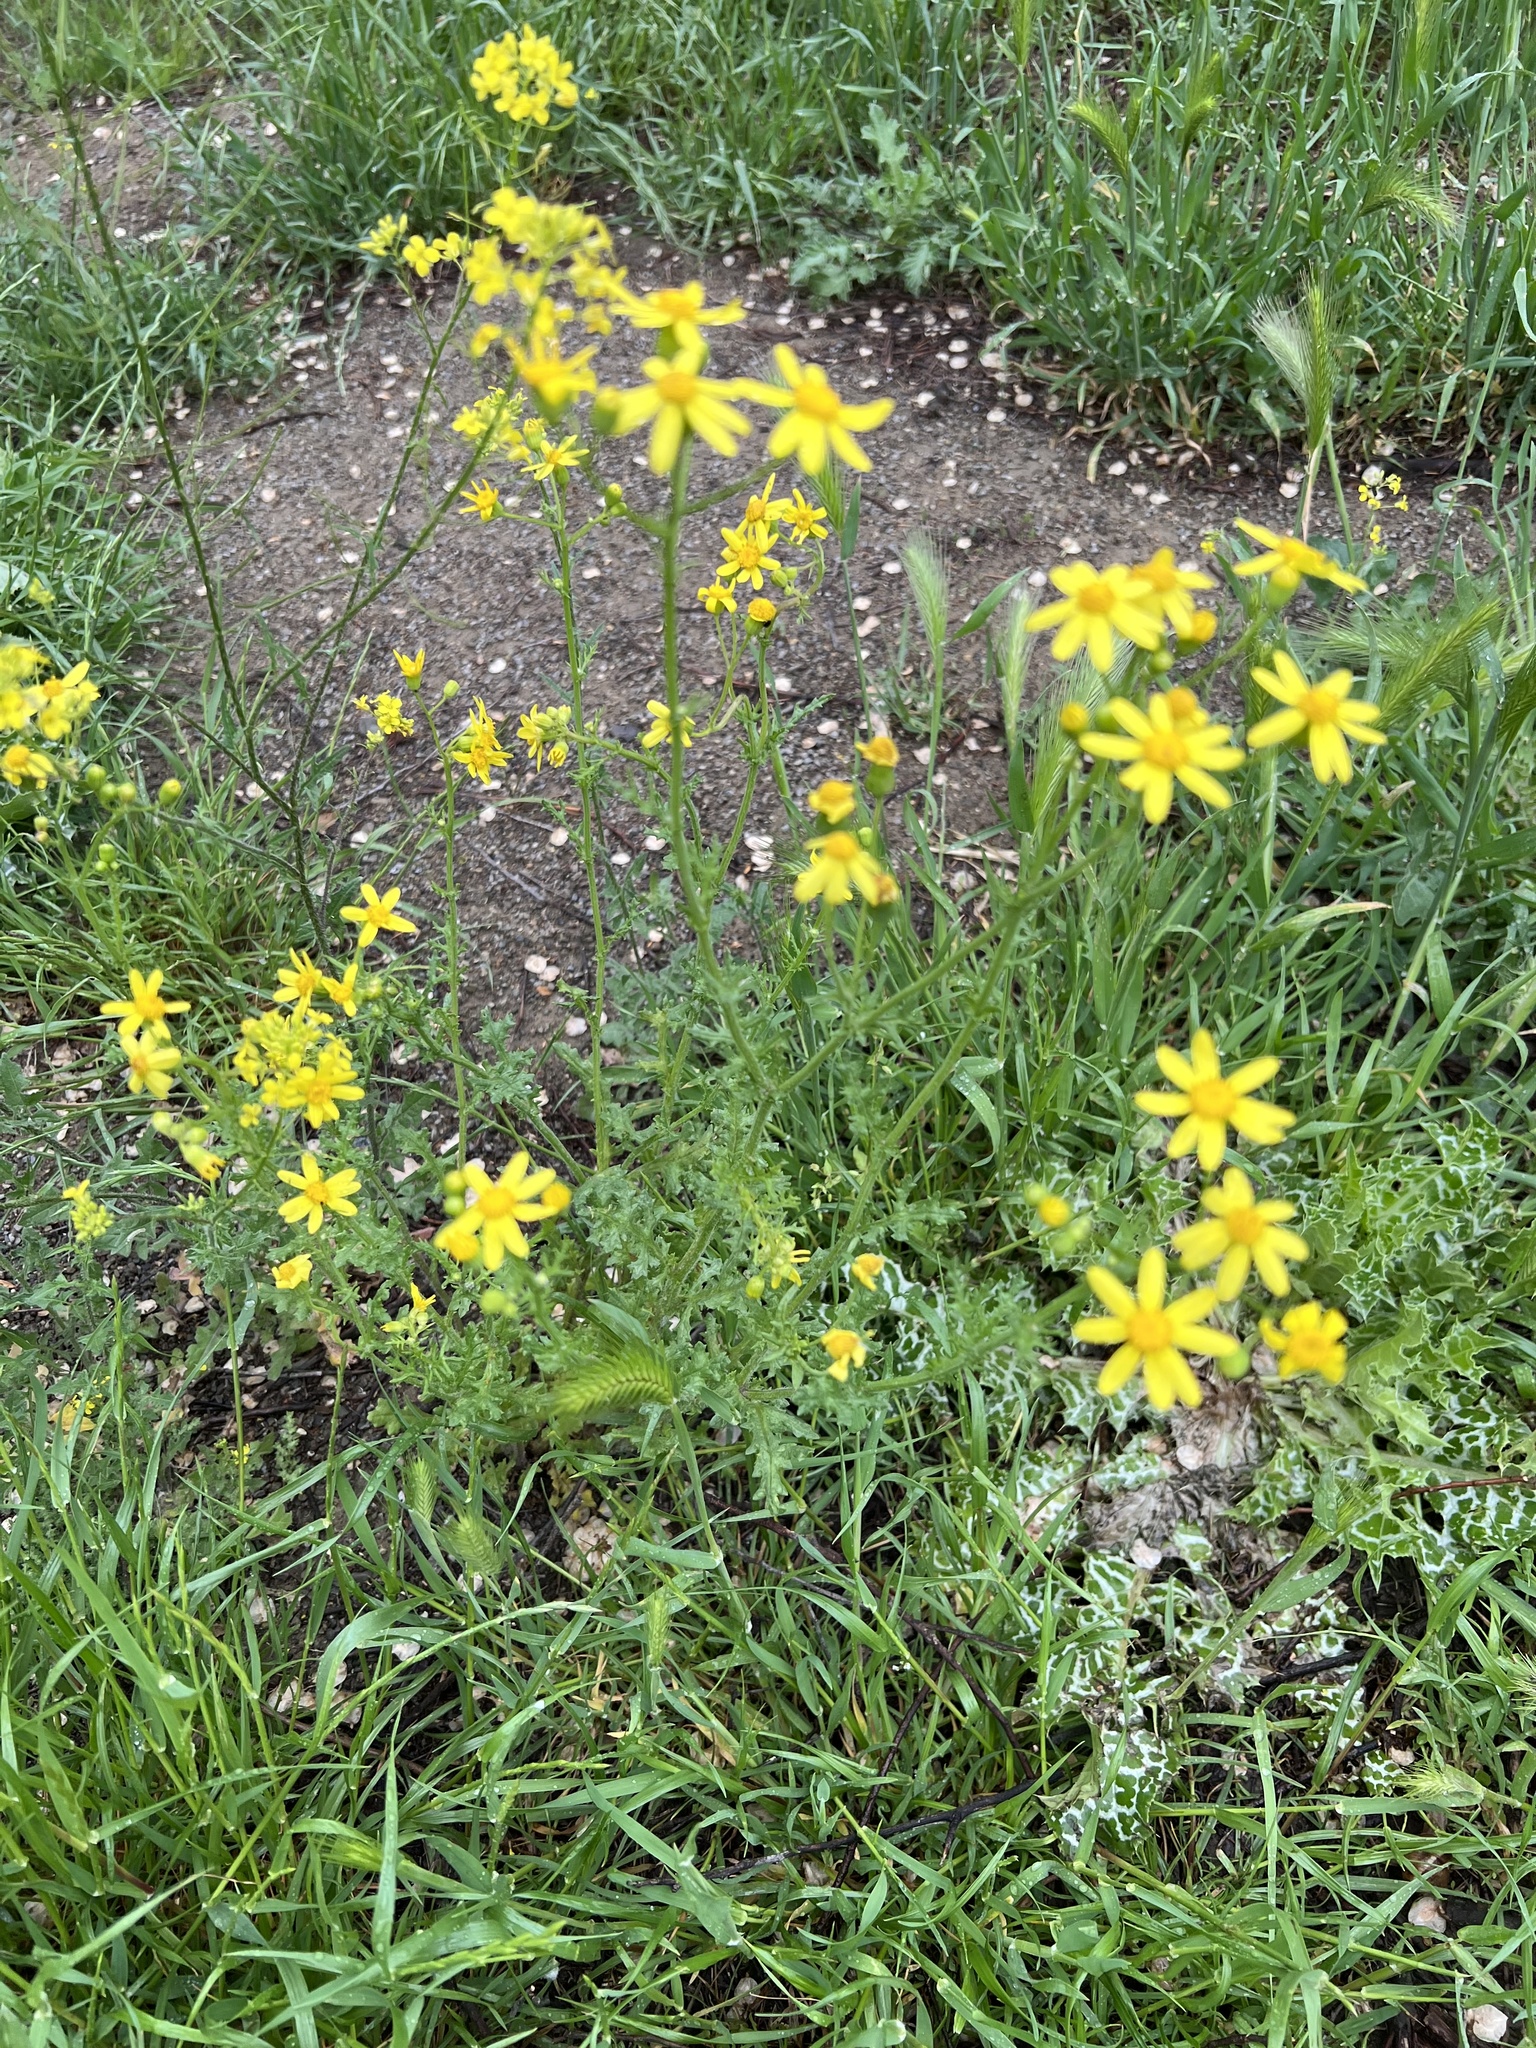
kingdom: Plantae
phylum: Tracheophyta
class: Magnoliopsida
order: Asterales
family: Asteraceae
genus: Senecio
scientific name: Senecio vernalis
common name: Eastern groundsel
